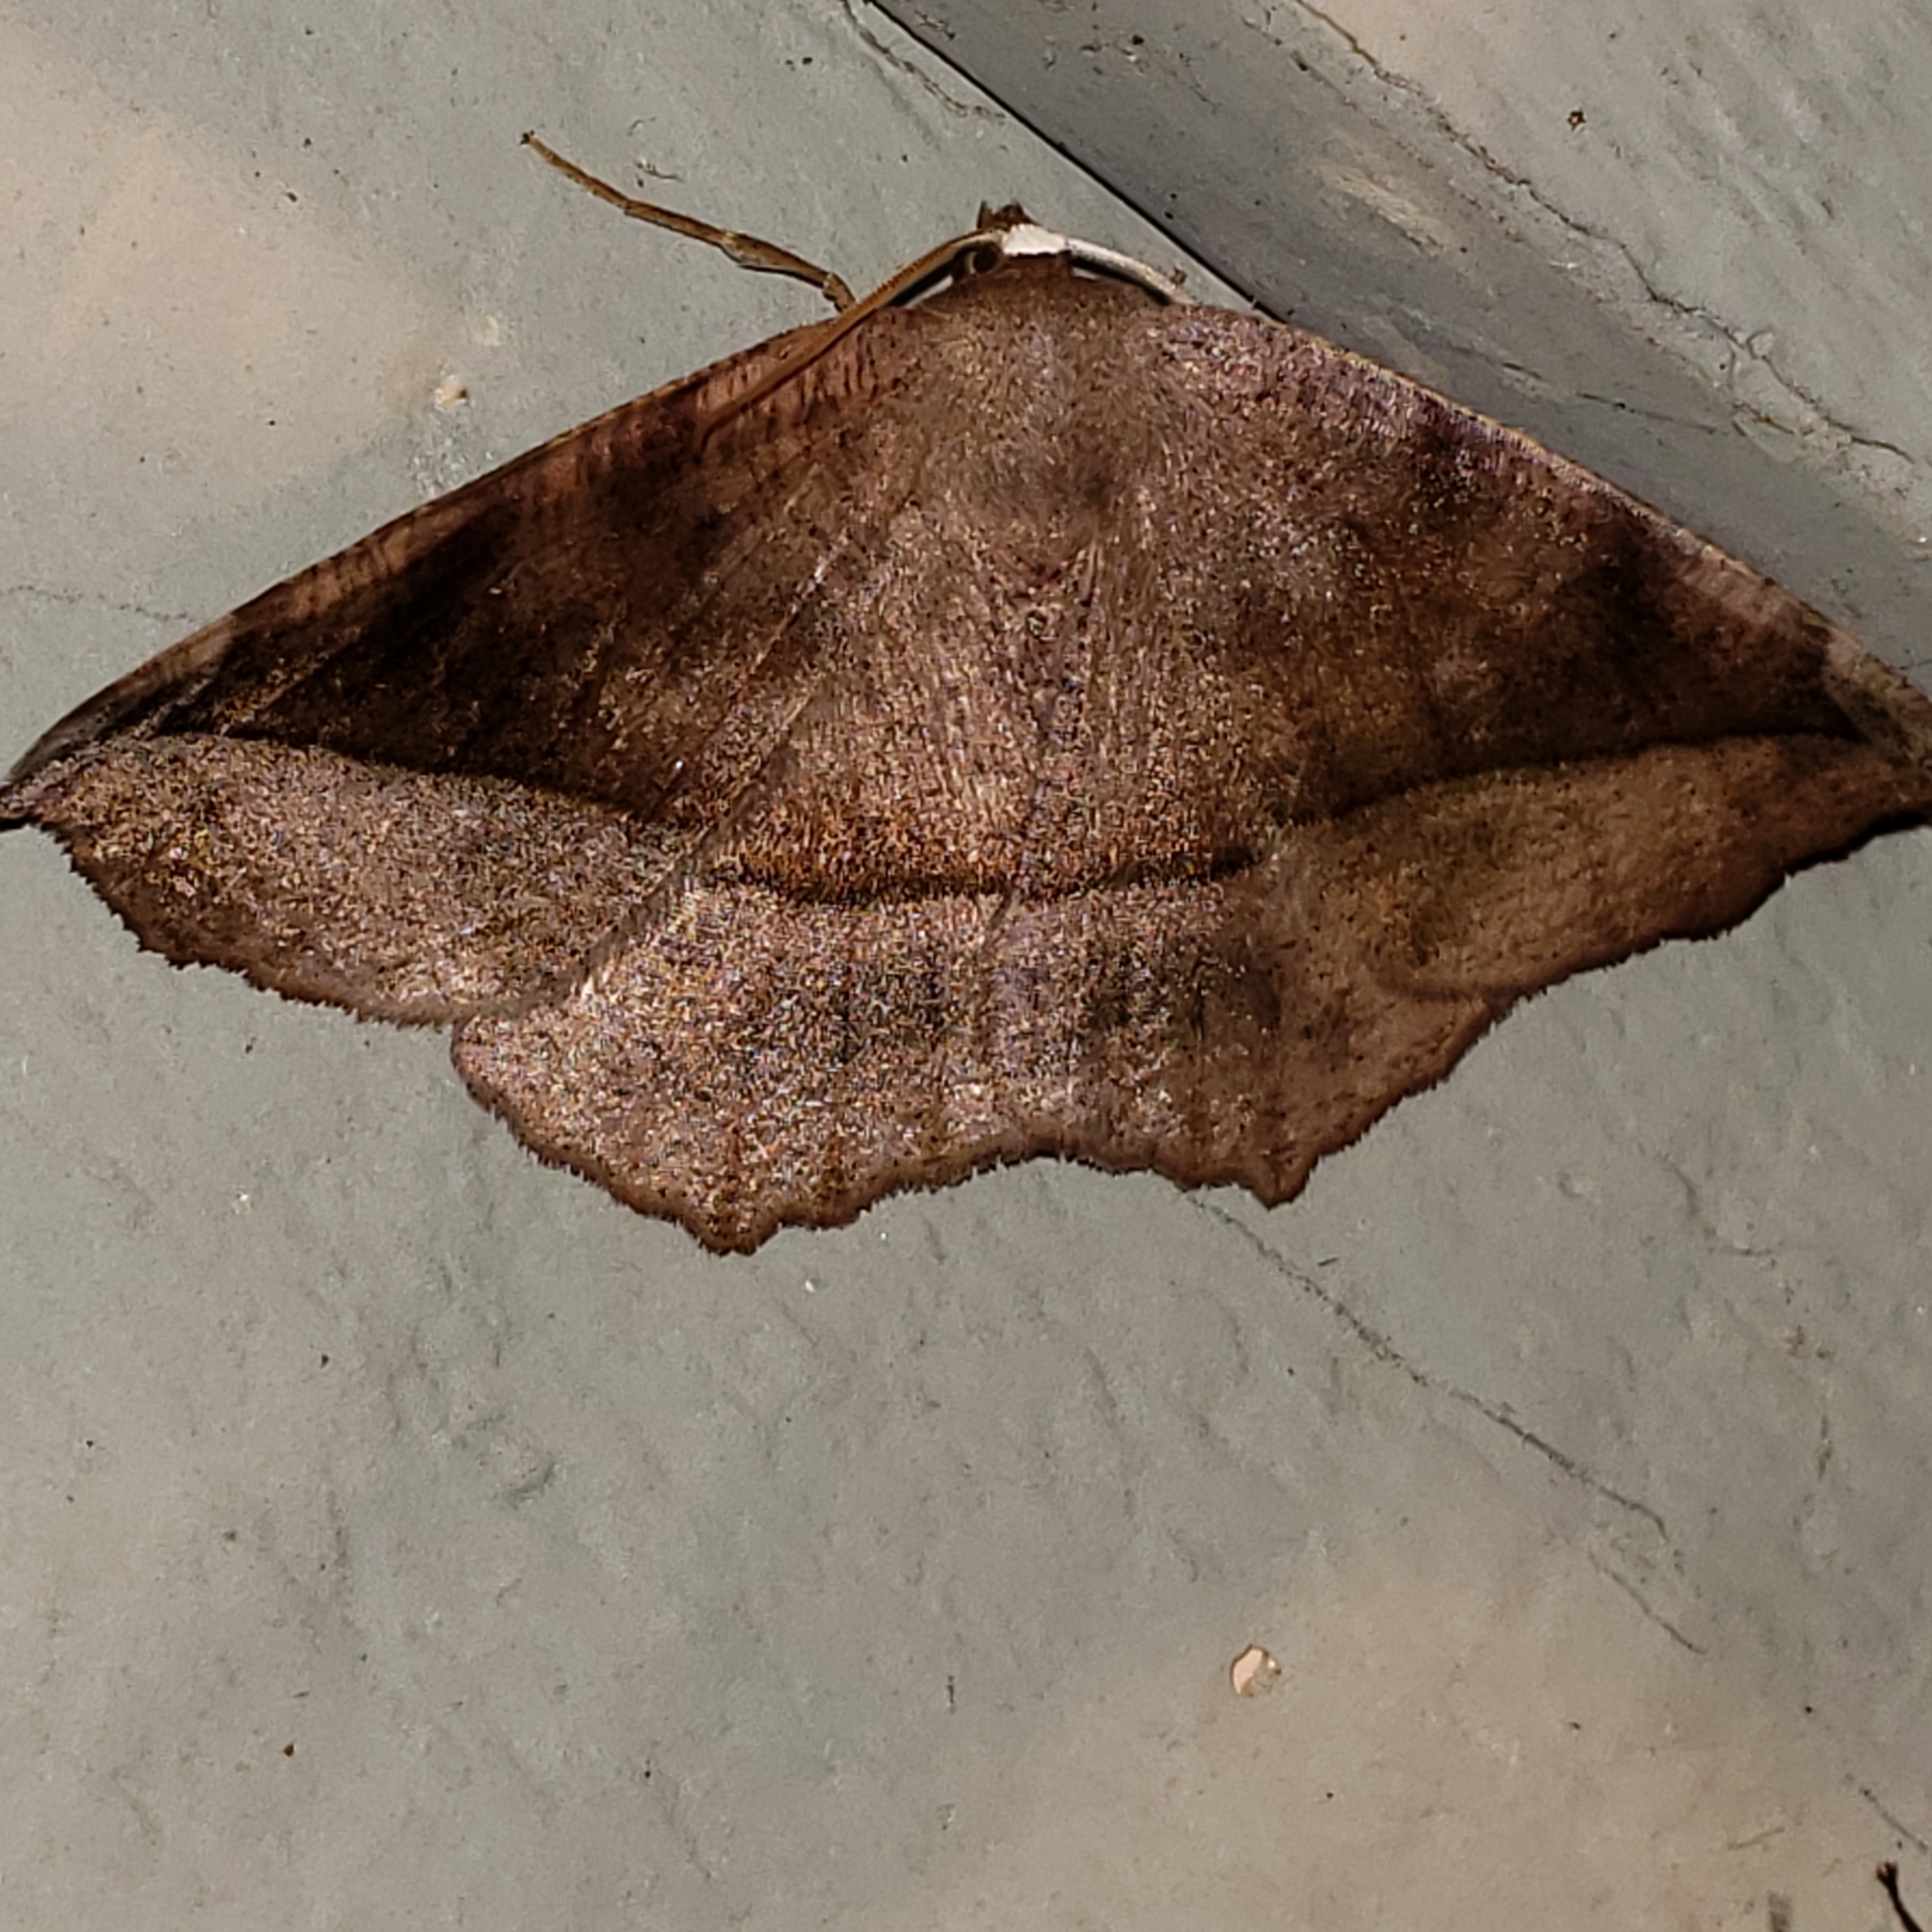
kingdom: Animalia
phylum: Arthropoda
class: Insecta
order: Lepidoptera
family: Geometridae
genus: Eutrapela
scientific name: Eutrapela clemataria
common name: Curved-toothed geometer
